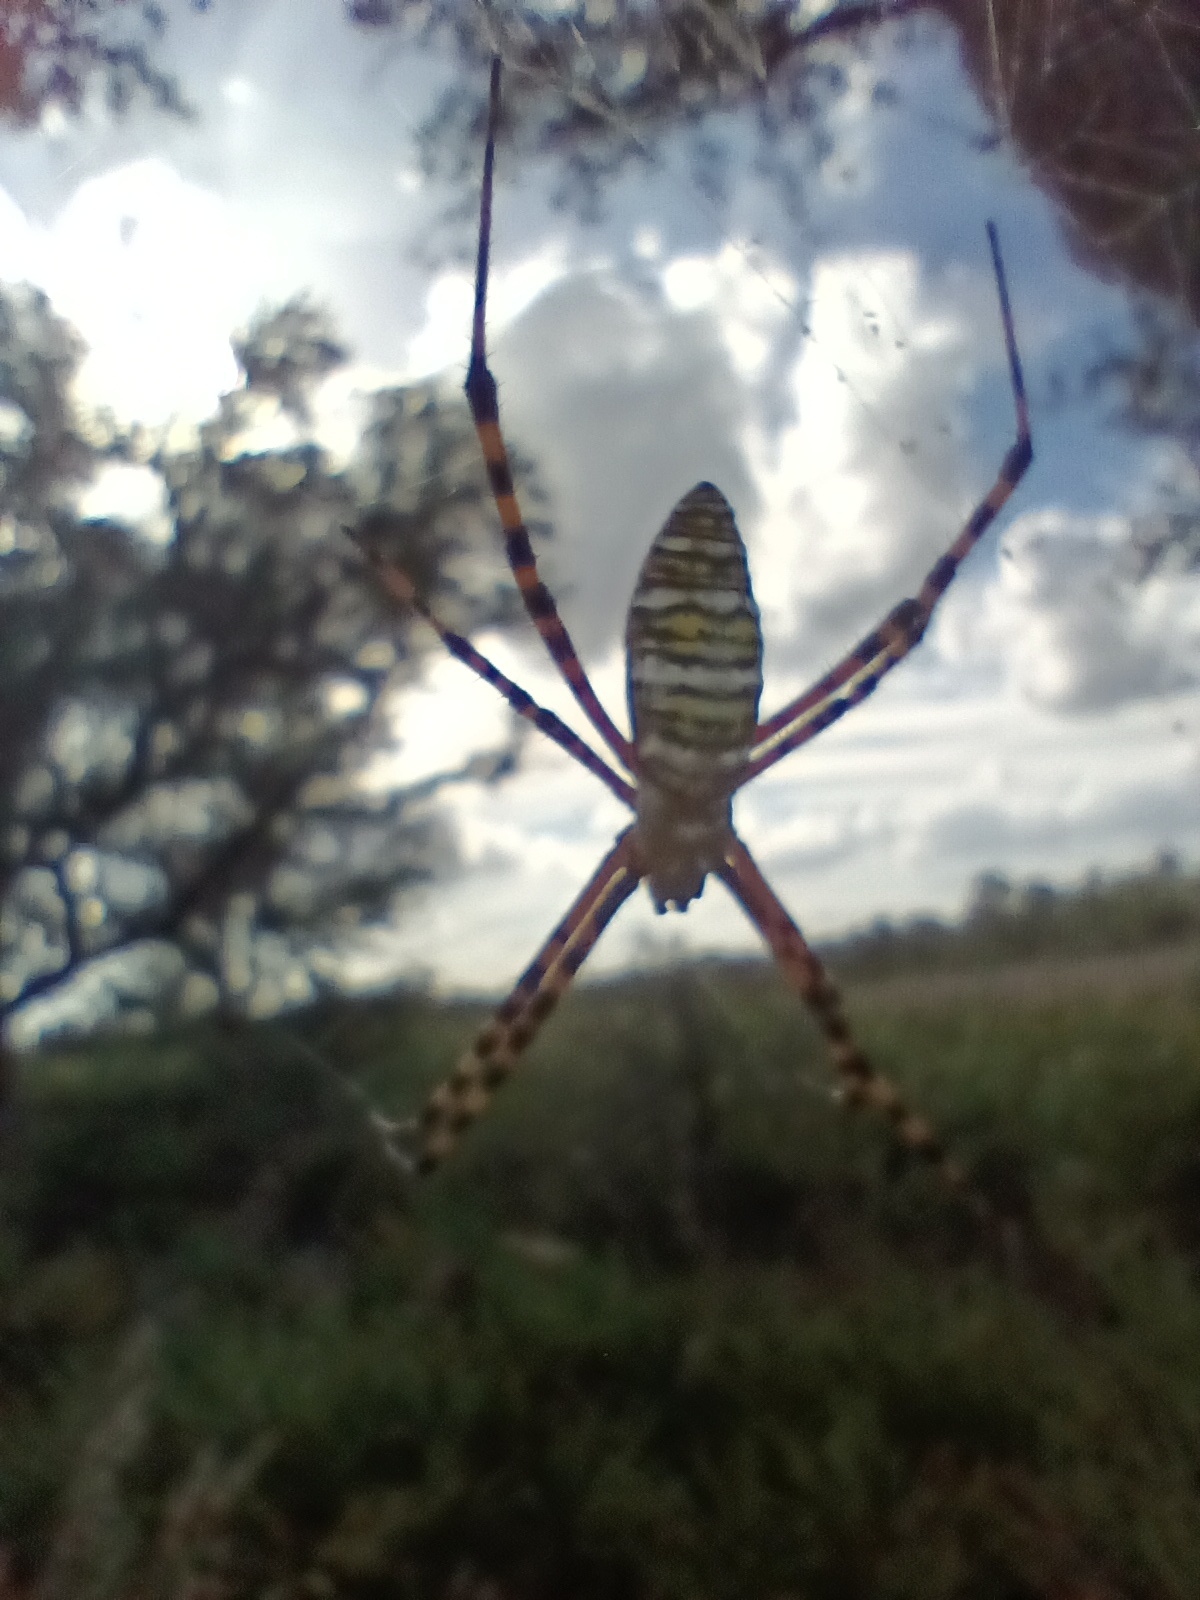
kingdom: Animalia
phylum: Arthropoda
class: Arachnida
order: Araneae
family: Araneidae
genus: Argiope
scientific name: Argiope trifasciata
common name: Banded garden spider
